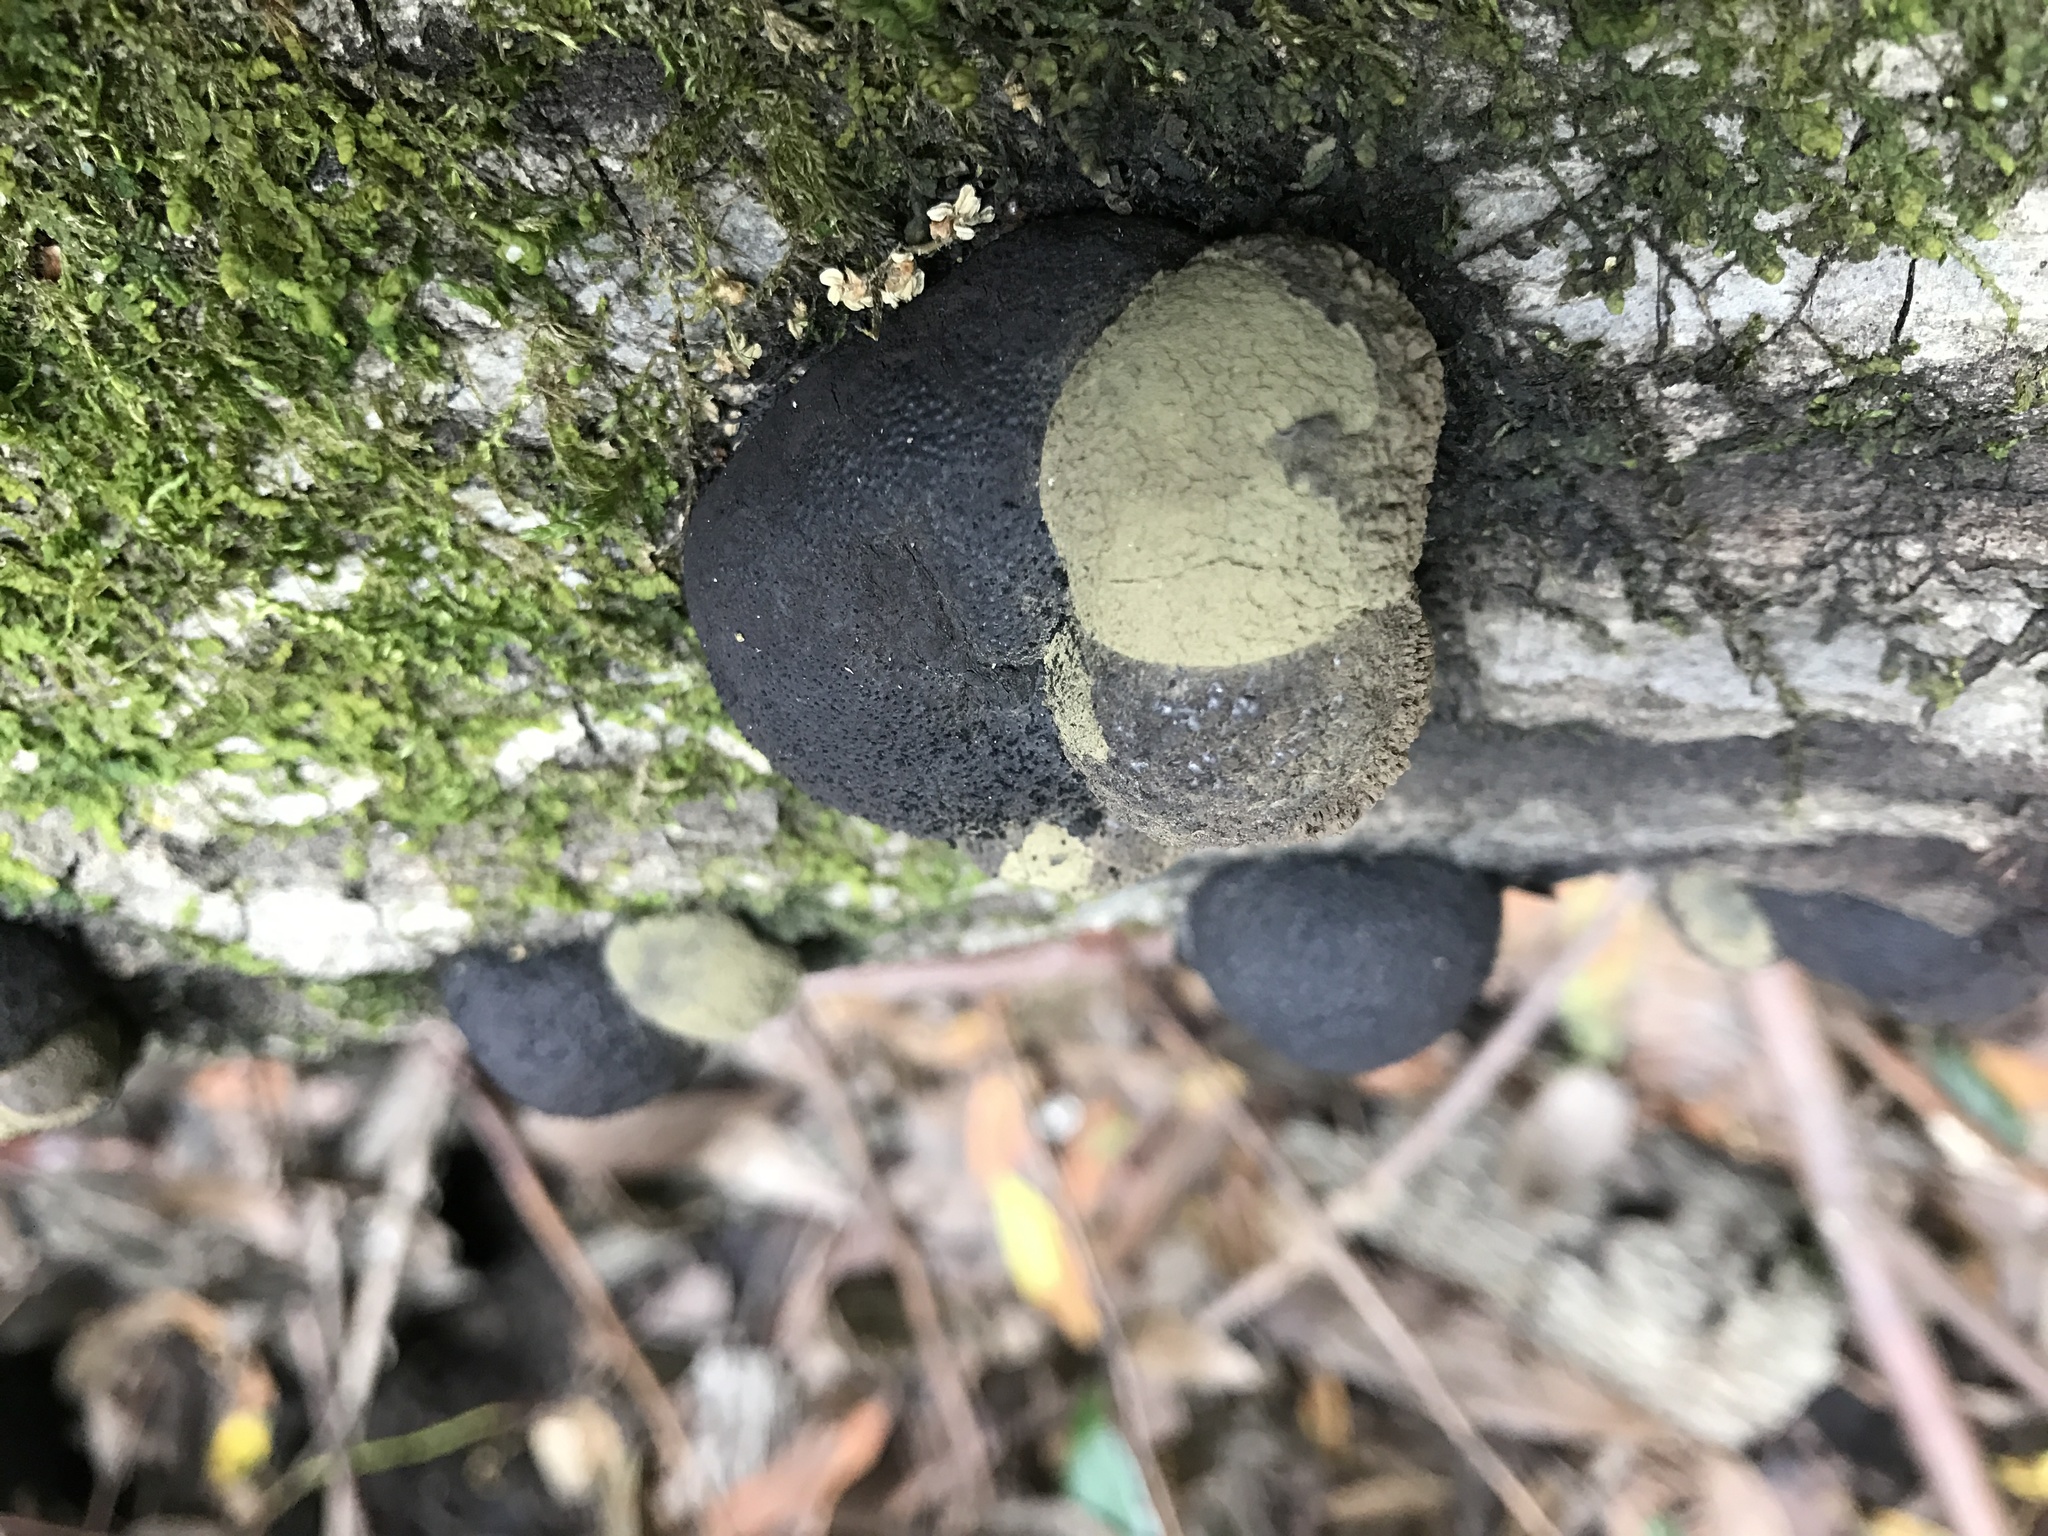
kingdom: Fungi
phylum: Ascomycota
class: Sordariomycetes
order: Xylariales
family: Hypoxylaceae
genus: Annulohypoxylon
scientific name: Annulohypoxylon thouarsianum
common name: Cramp balls
